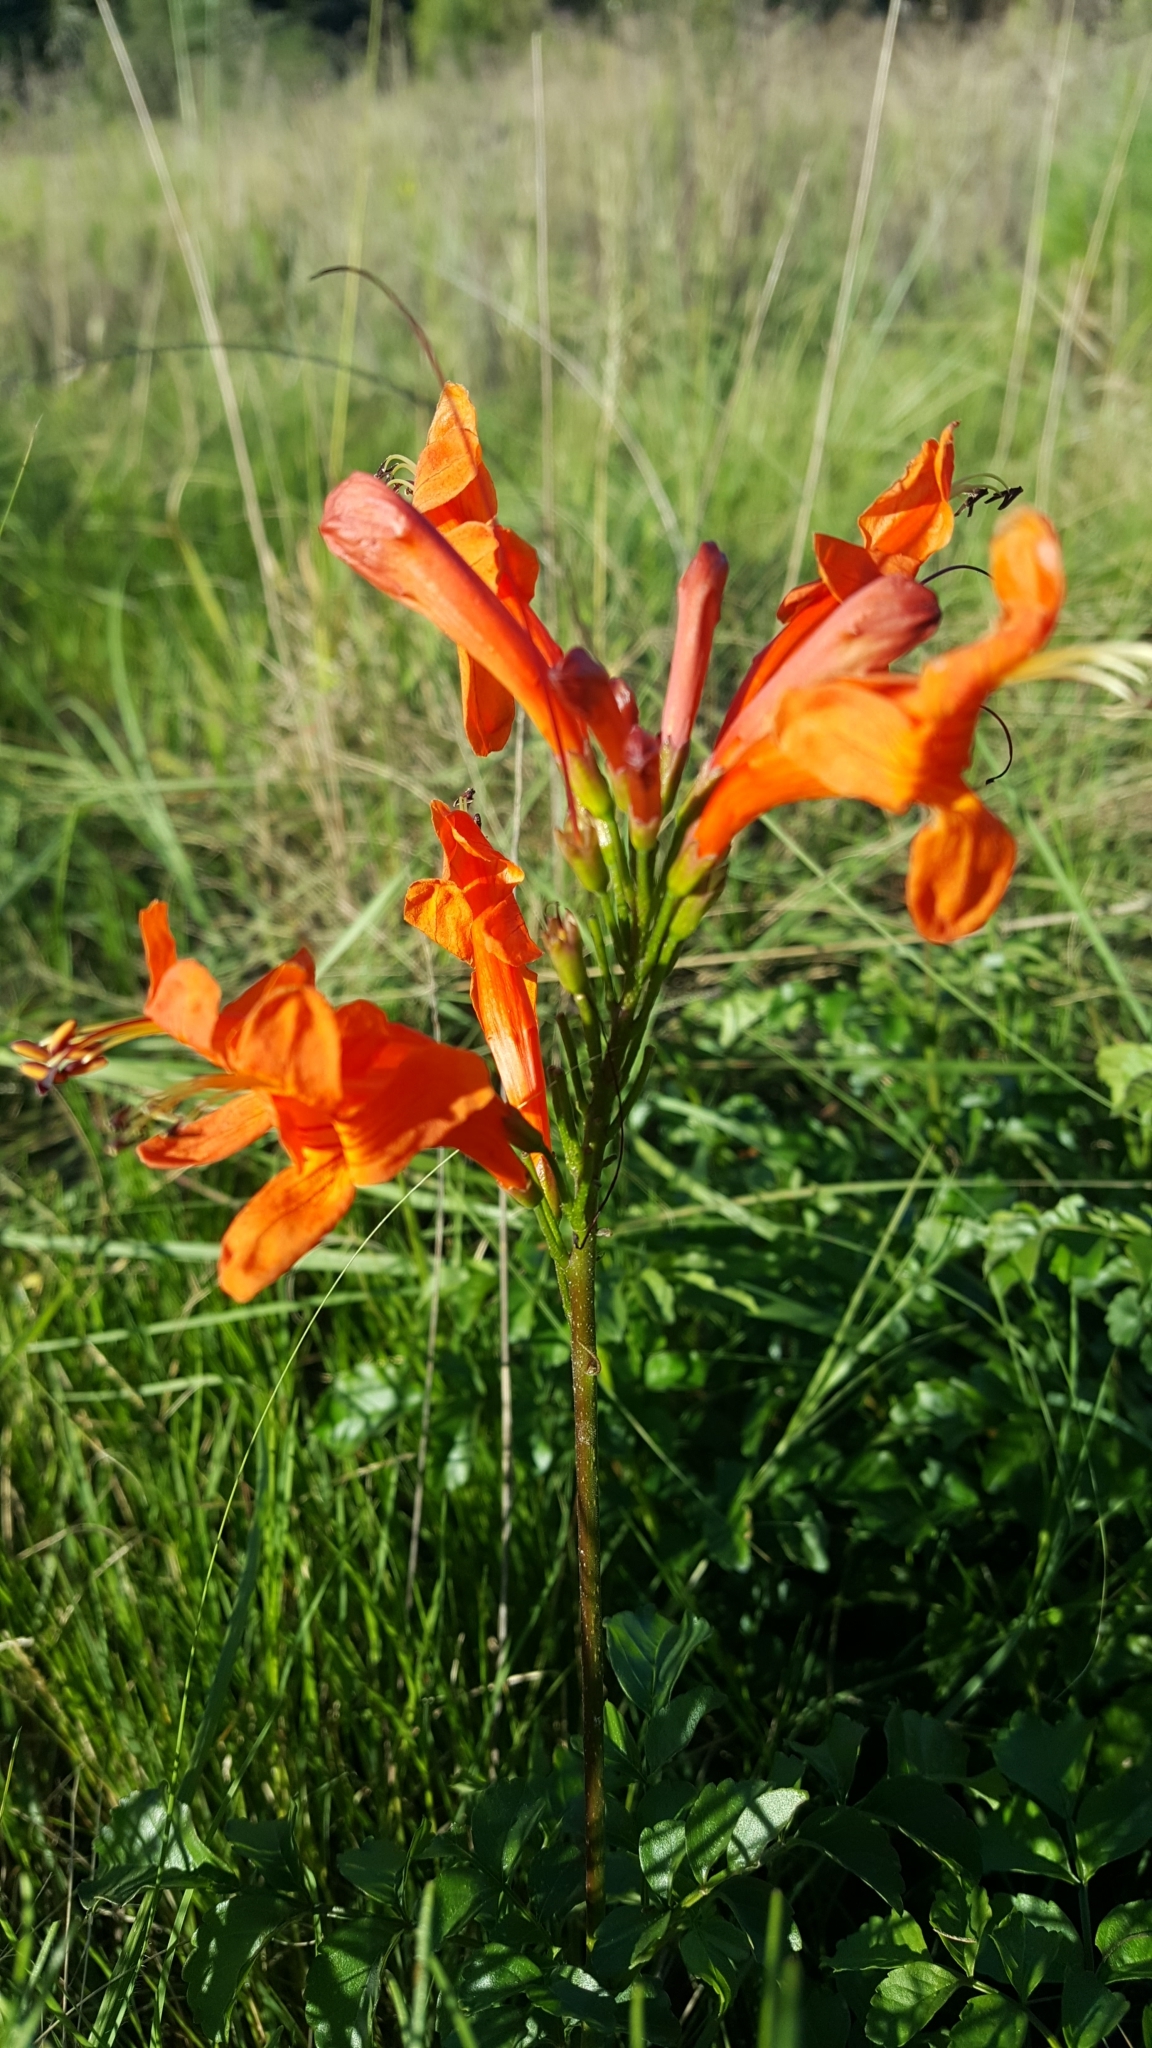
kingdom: Plantae
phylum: Tracheophyta
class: Magnoliopsida
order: Lamiales
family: Bignoniaceae
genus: Tecomaria
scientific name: Tecomaria capensis
